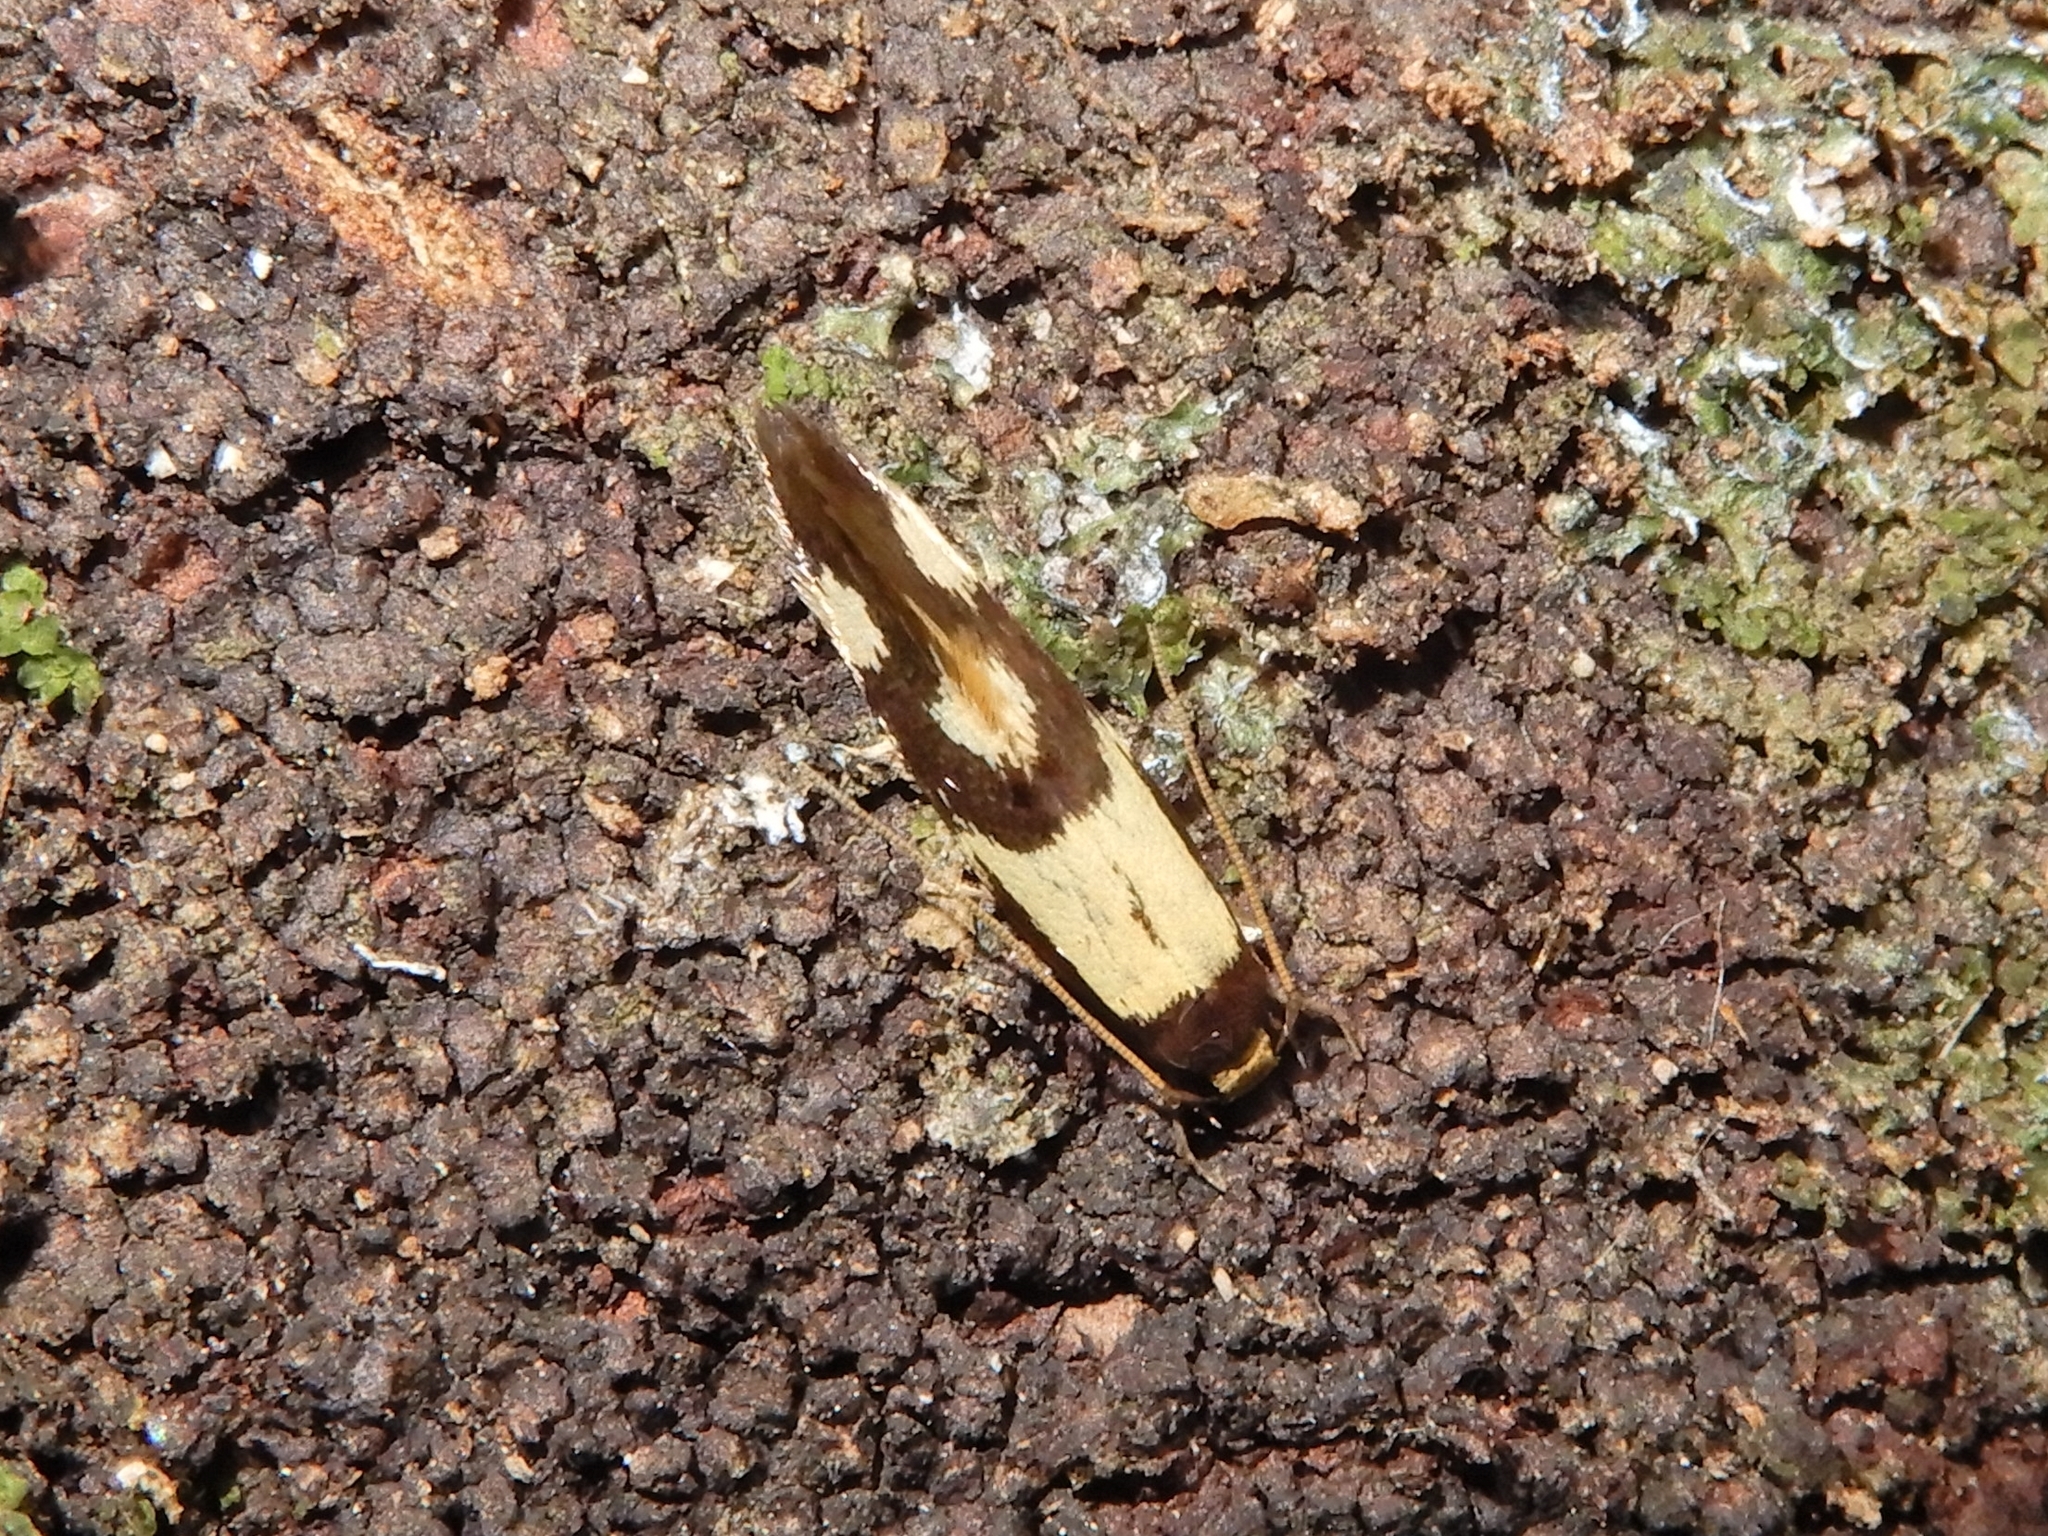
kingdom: Animalia
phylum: Arthropoda
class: Insecta
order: Lepidoptera
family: Tineidae
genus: Opogona
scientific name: Opogona comptella
